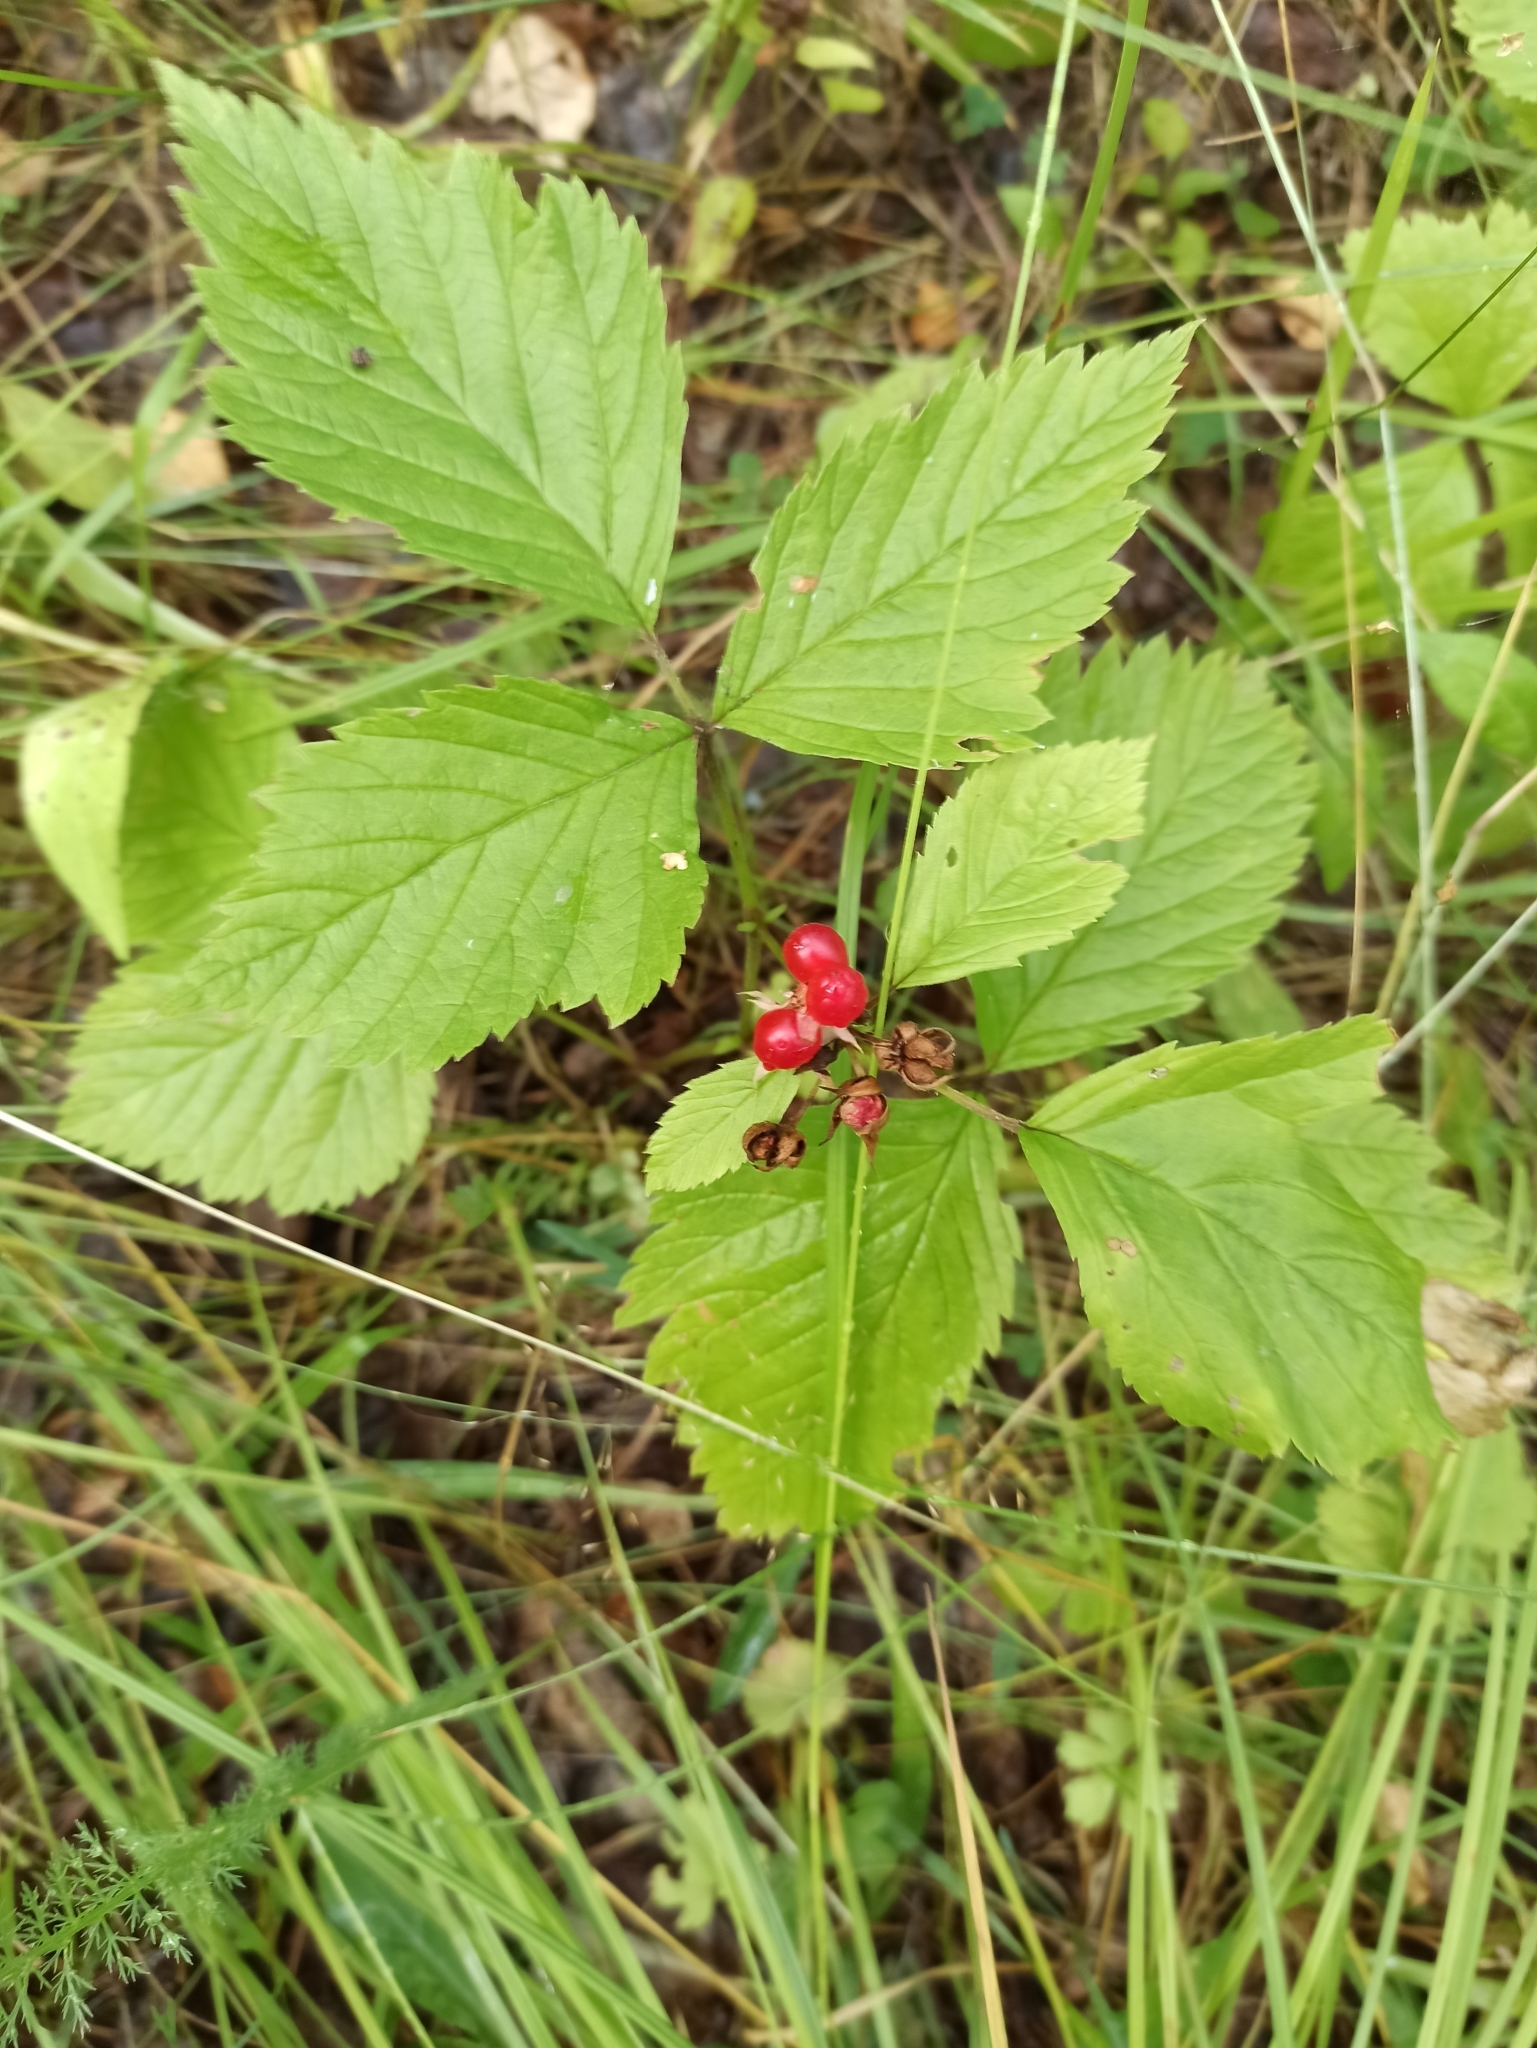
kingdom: Plantae
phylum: Tracheophyta
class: Magnoliopsida
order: Rosales
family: Rosaceae
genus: Rubus
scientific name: Rubus saxatilis
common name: Stone bramble
